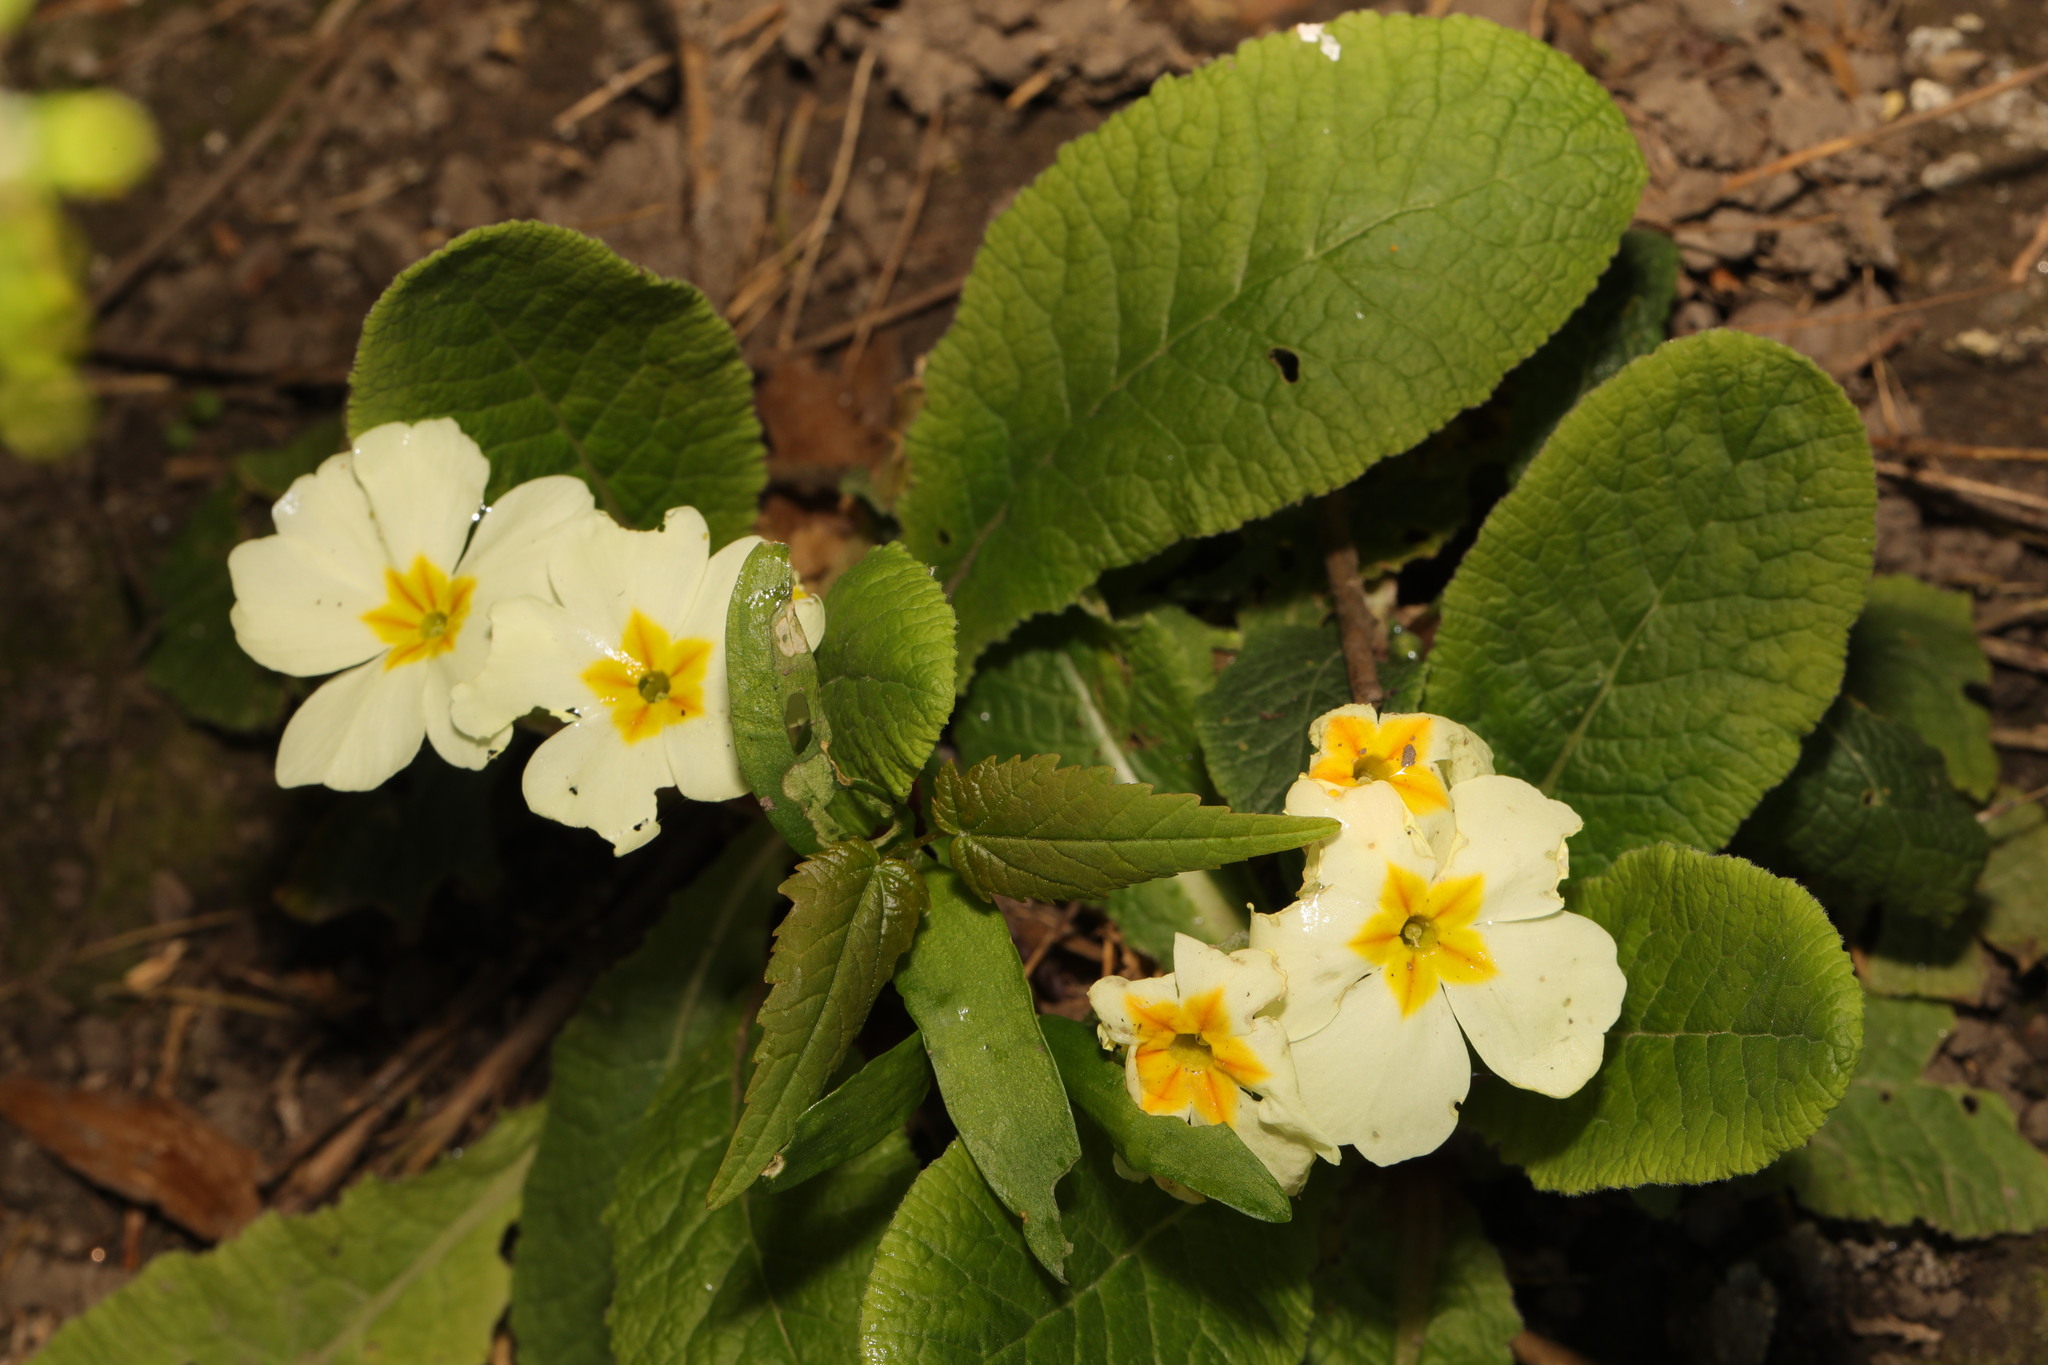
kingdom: Plantae
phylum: Tracheophyta
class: Magnoliopsida
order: Ericales
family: Primulaceae
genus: Primula
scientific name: Primula vulgaris
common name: Primrose
